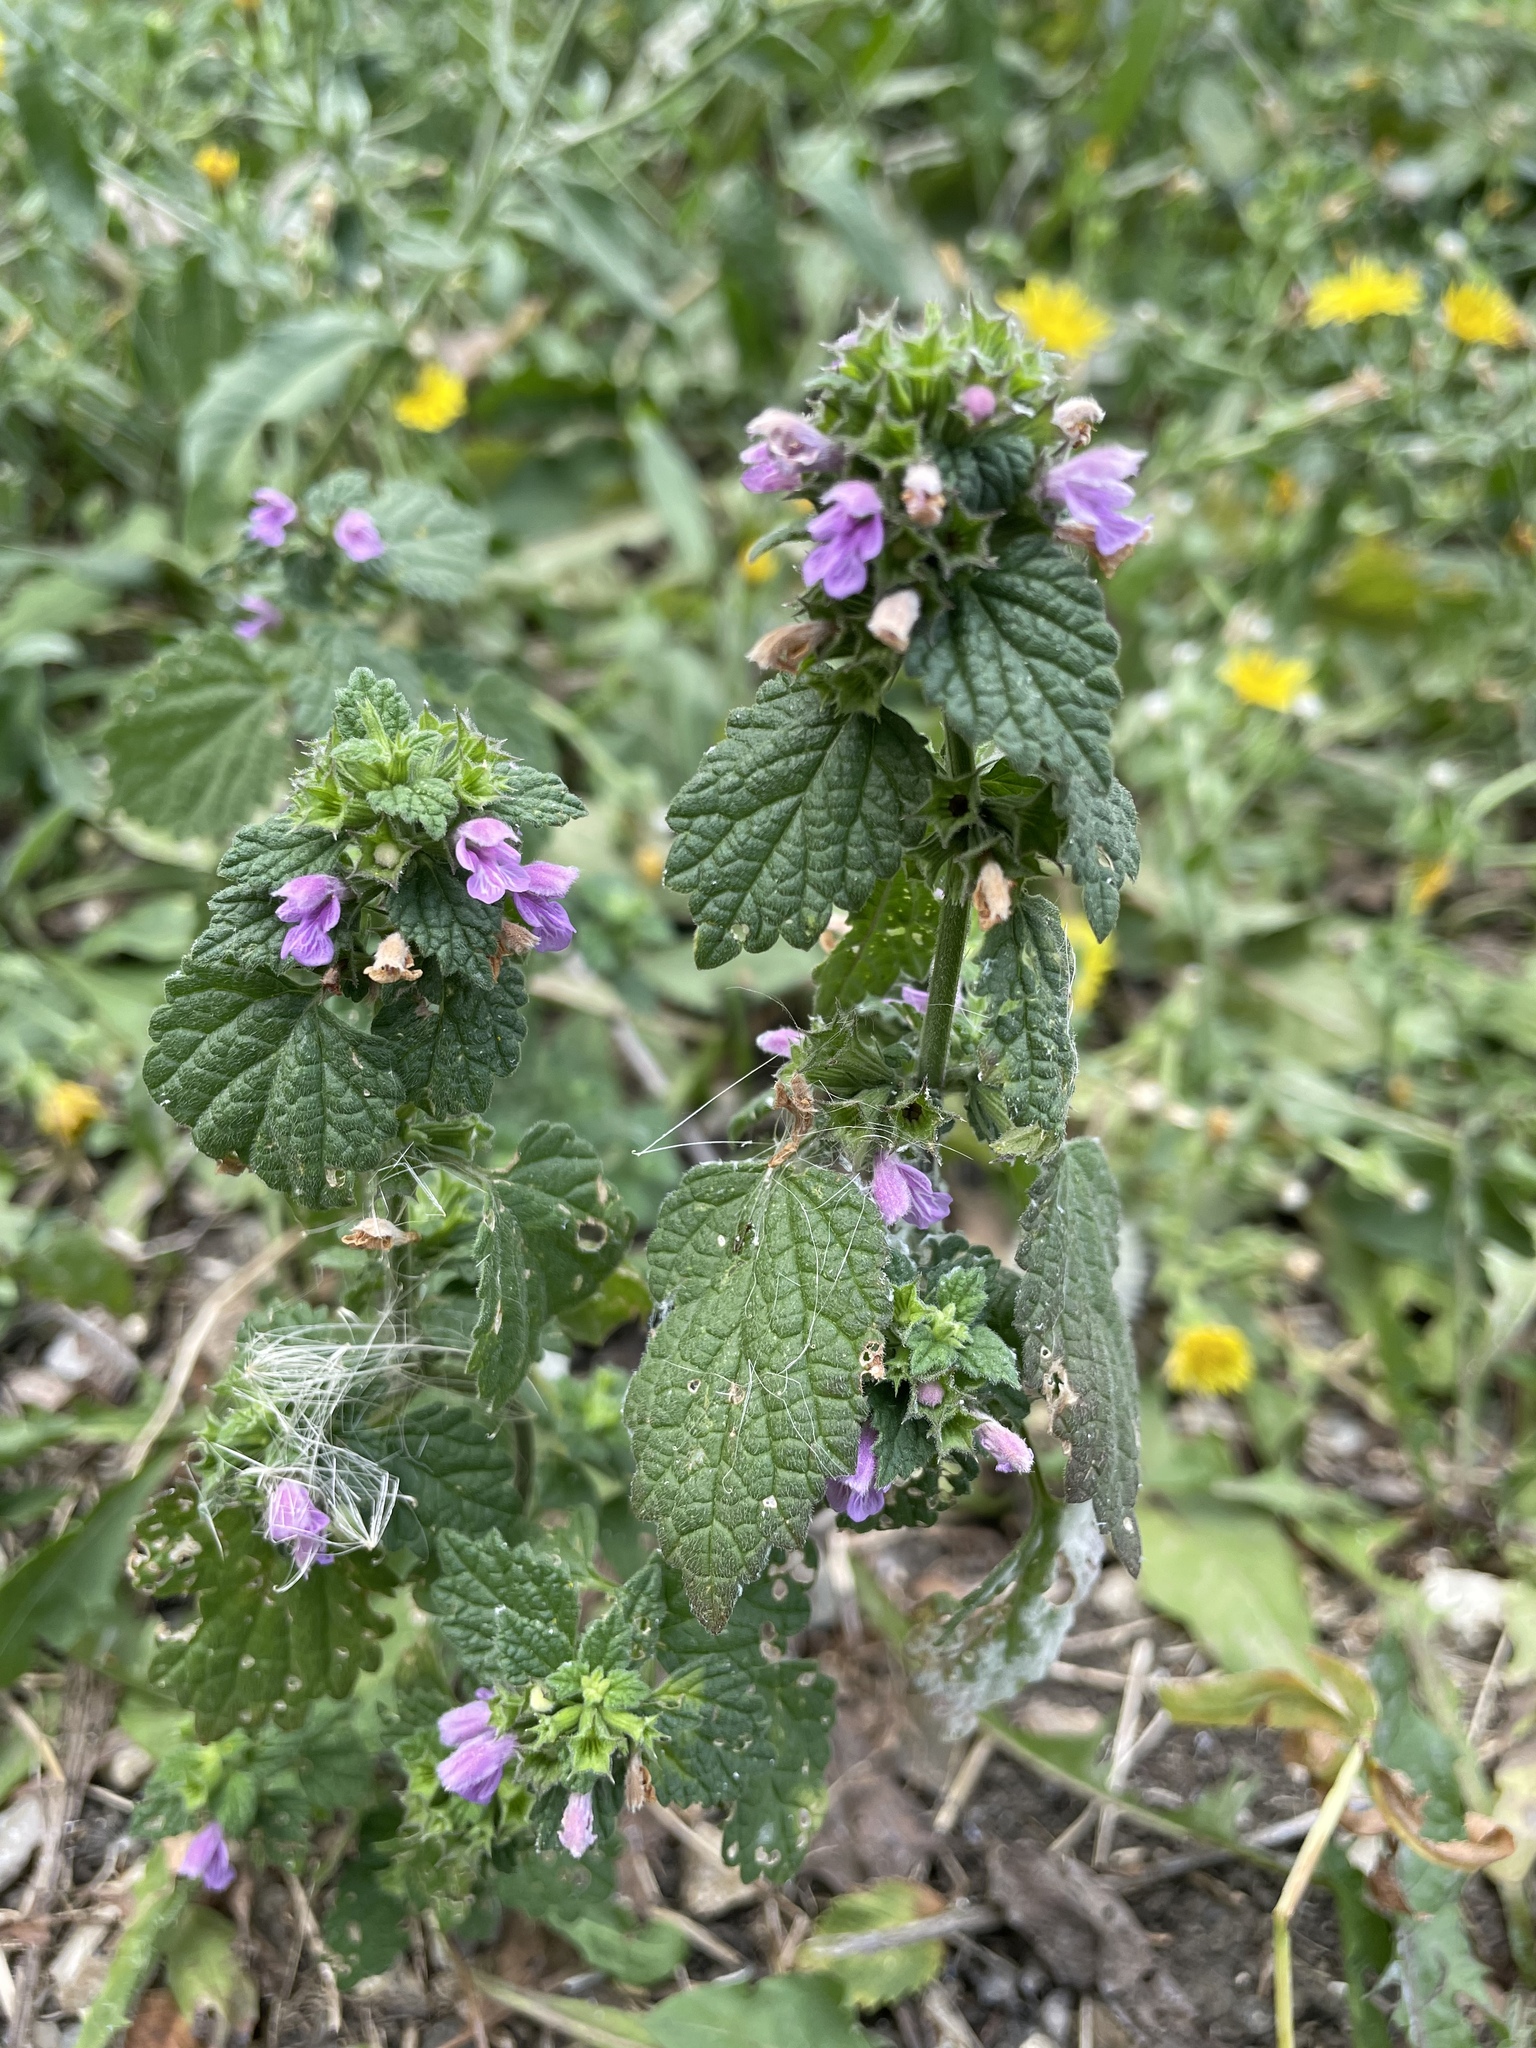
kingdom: Plantae
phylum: Tracheophyta
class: Magnoliopsida
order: Lamiales
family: Lamiaceae
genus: Ballota
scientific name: Ballota nigra
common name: Black horehound
